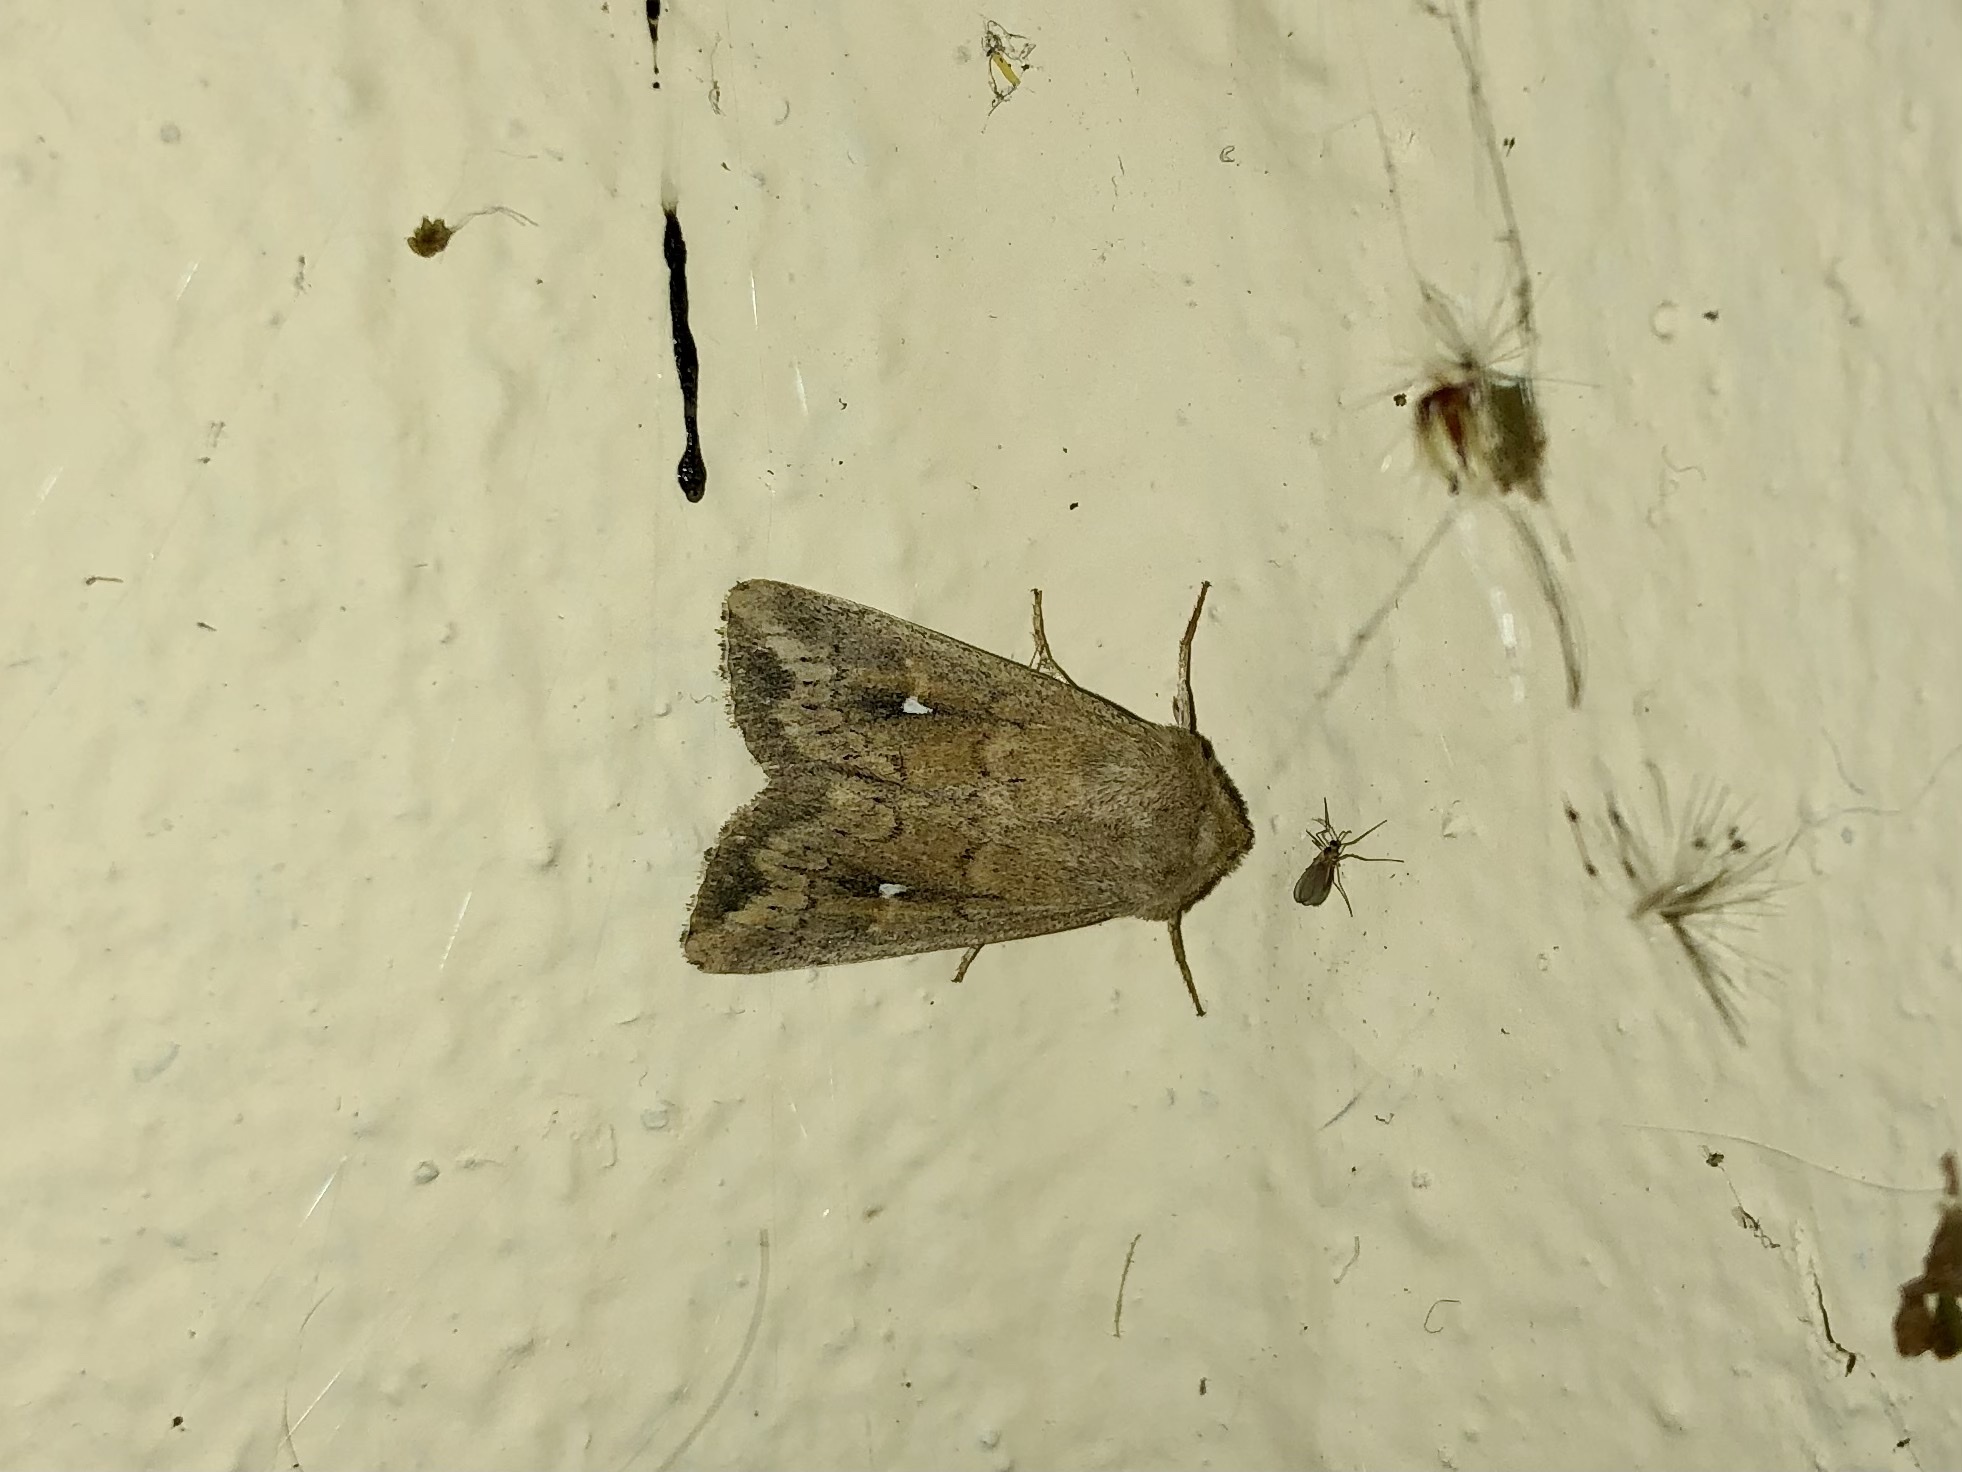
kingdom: Animalia
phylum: Arthropoda
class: Insecta
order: Lepidoptera
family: Noctuidae
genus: Mythimna
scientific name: Mythimna albipuncta
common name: White-point
